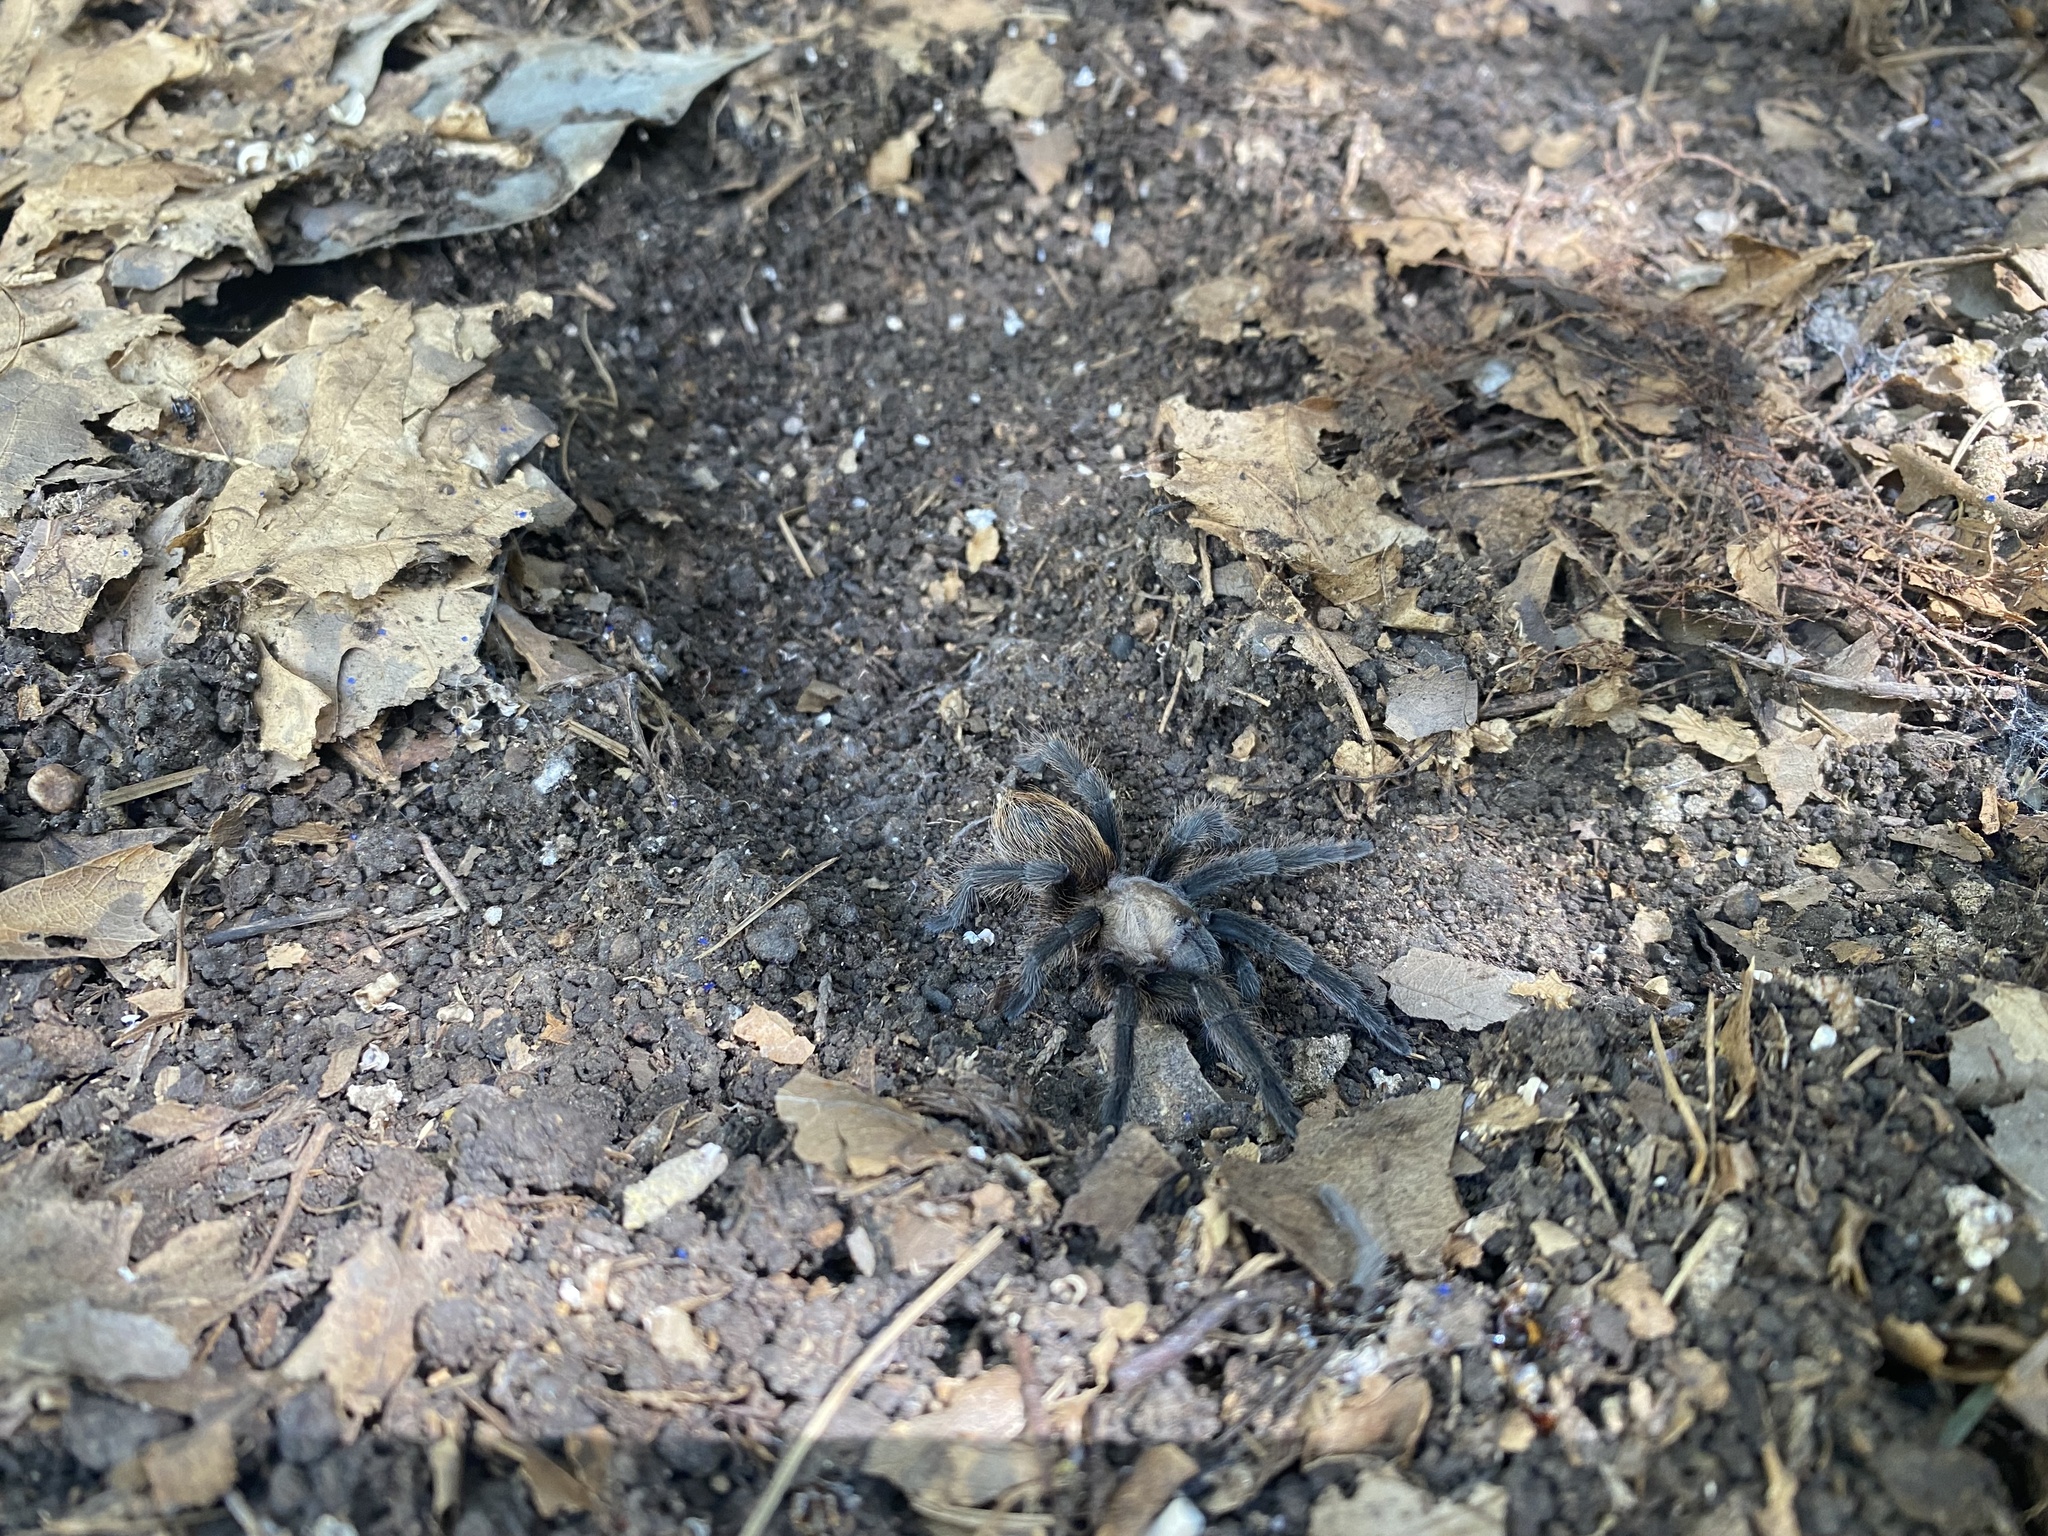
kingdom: Animalia
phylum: Arthropoda
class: Arachnida
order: Araneae
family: Theraphosidae
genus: Aphonopelma
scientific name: Aphonopelma hentzi
